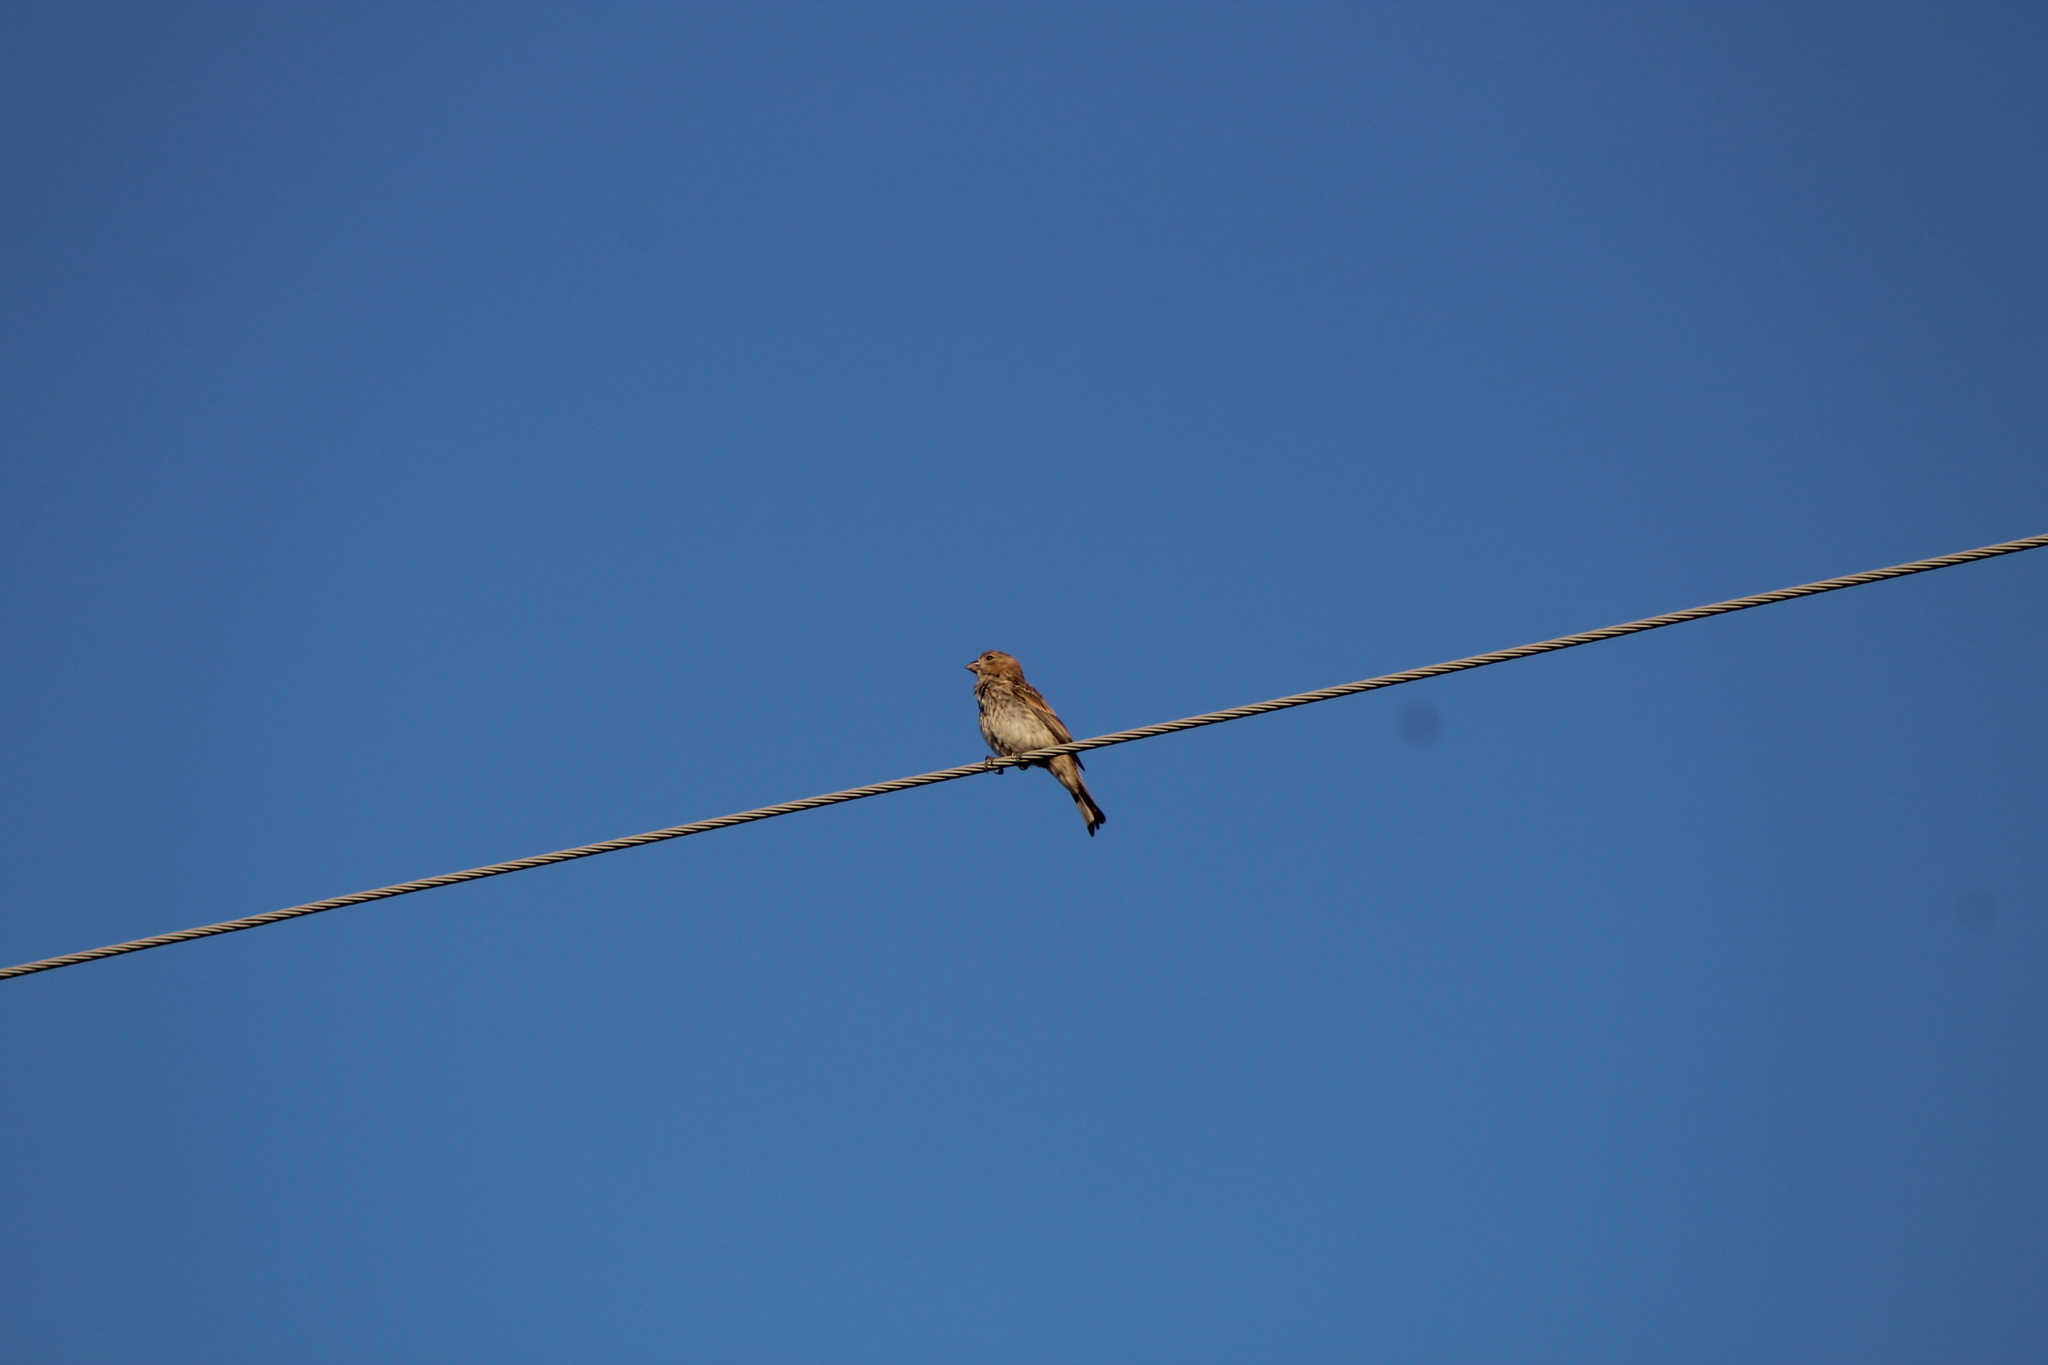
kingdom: Animalia
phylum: Chordata
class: Aves
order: Passeriformes
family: Fringillidae
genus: Haemorhous
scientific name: Haemorhous mexicanus
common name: House finch
